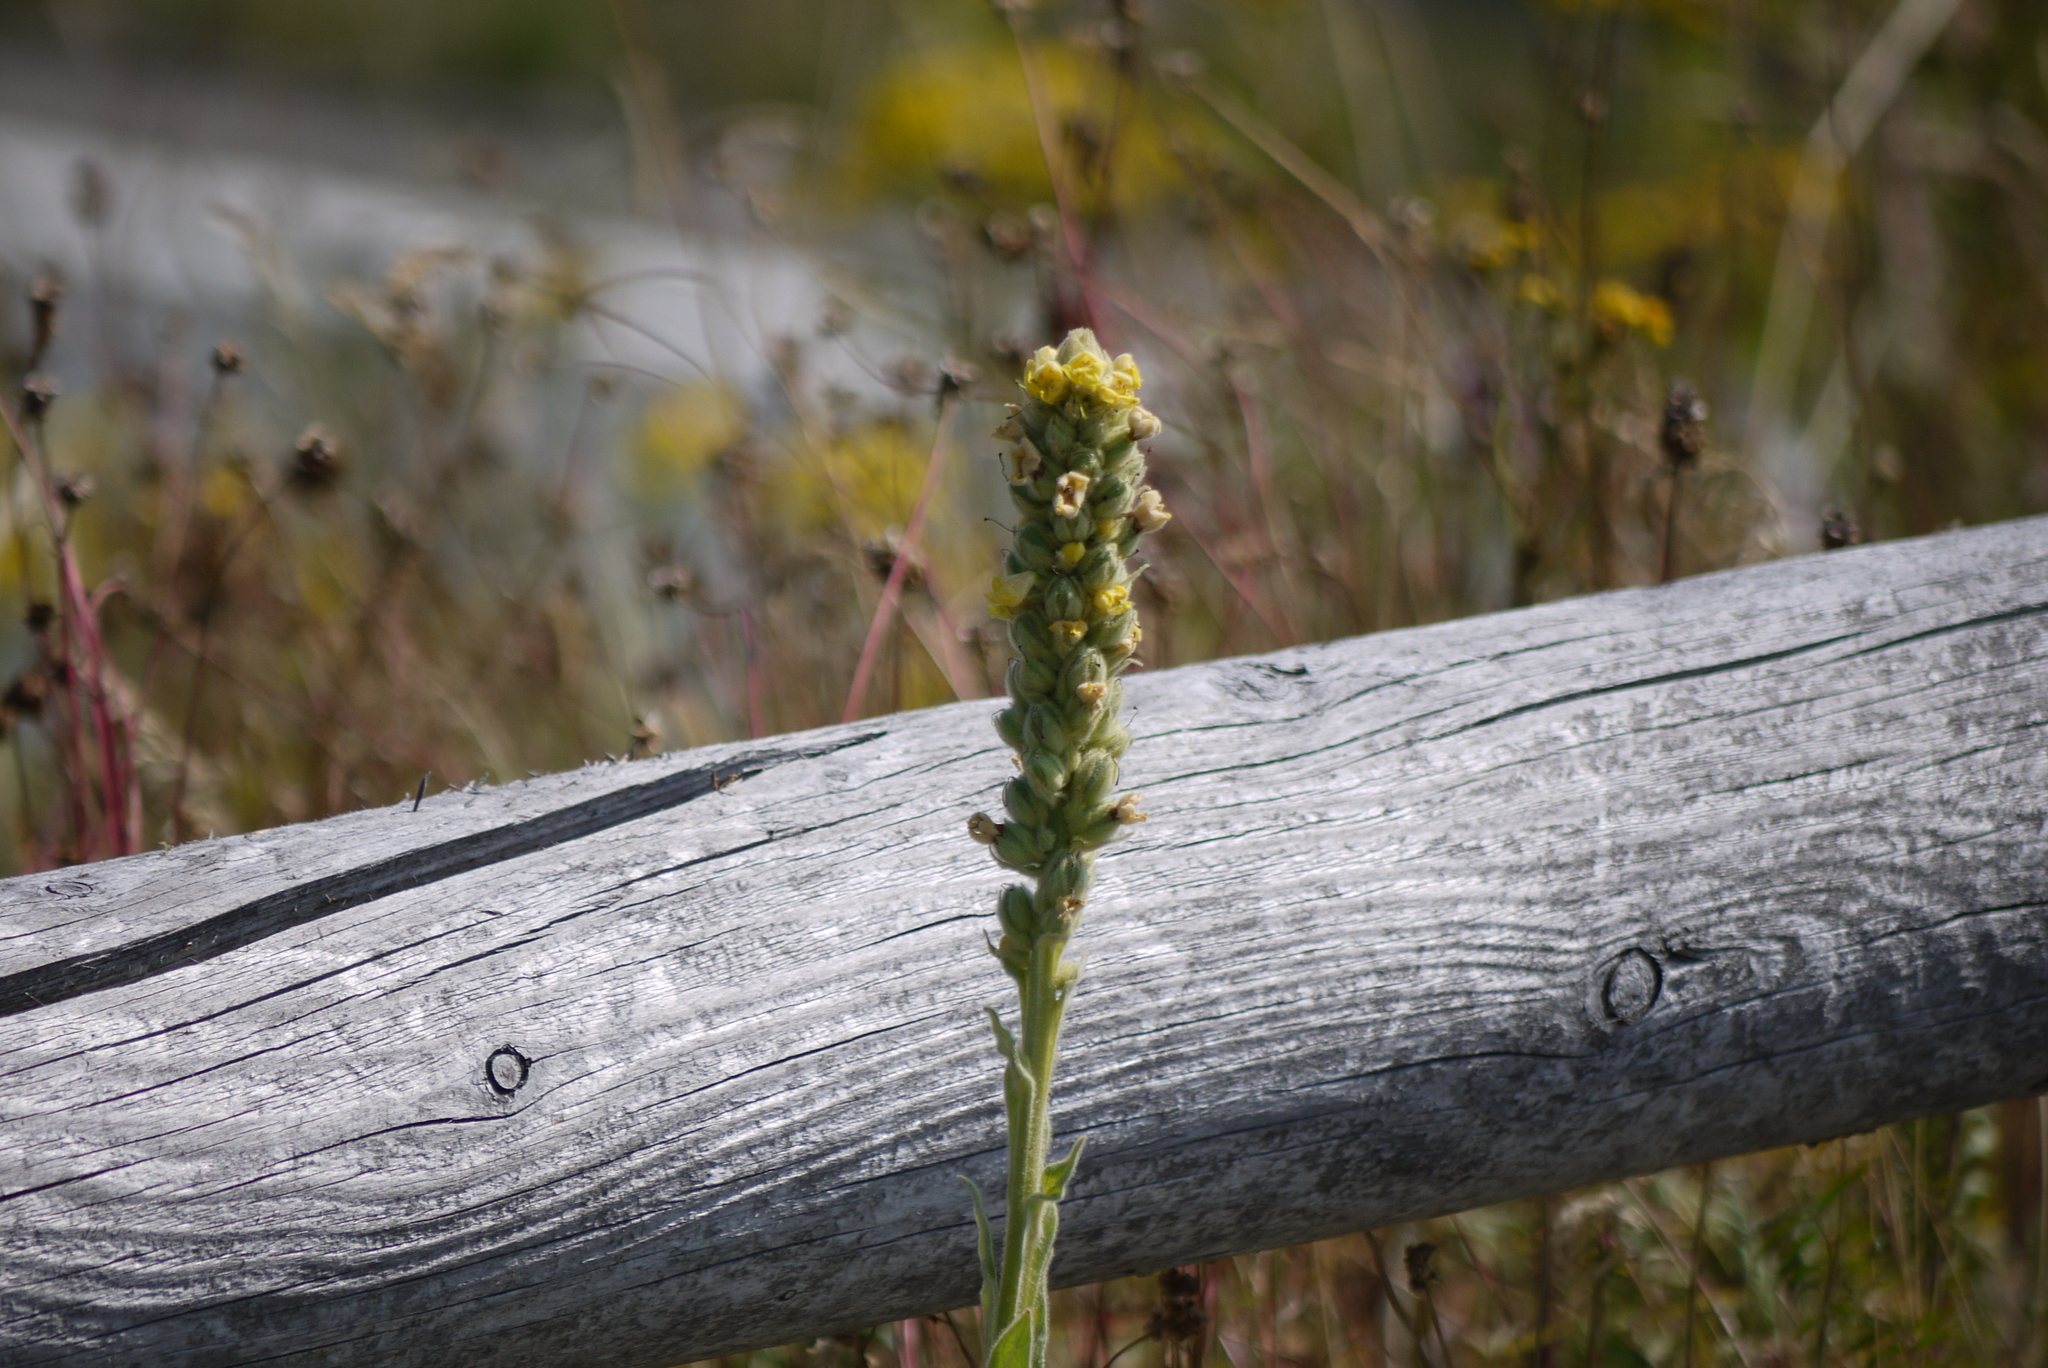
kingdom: Plantae
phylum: Tracheophyta
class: Magnoliopsida
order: Lamiales
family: Scrophulariaceae
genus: Verbascum
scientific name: Verbascum thapsus
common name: Common mullein
